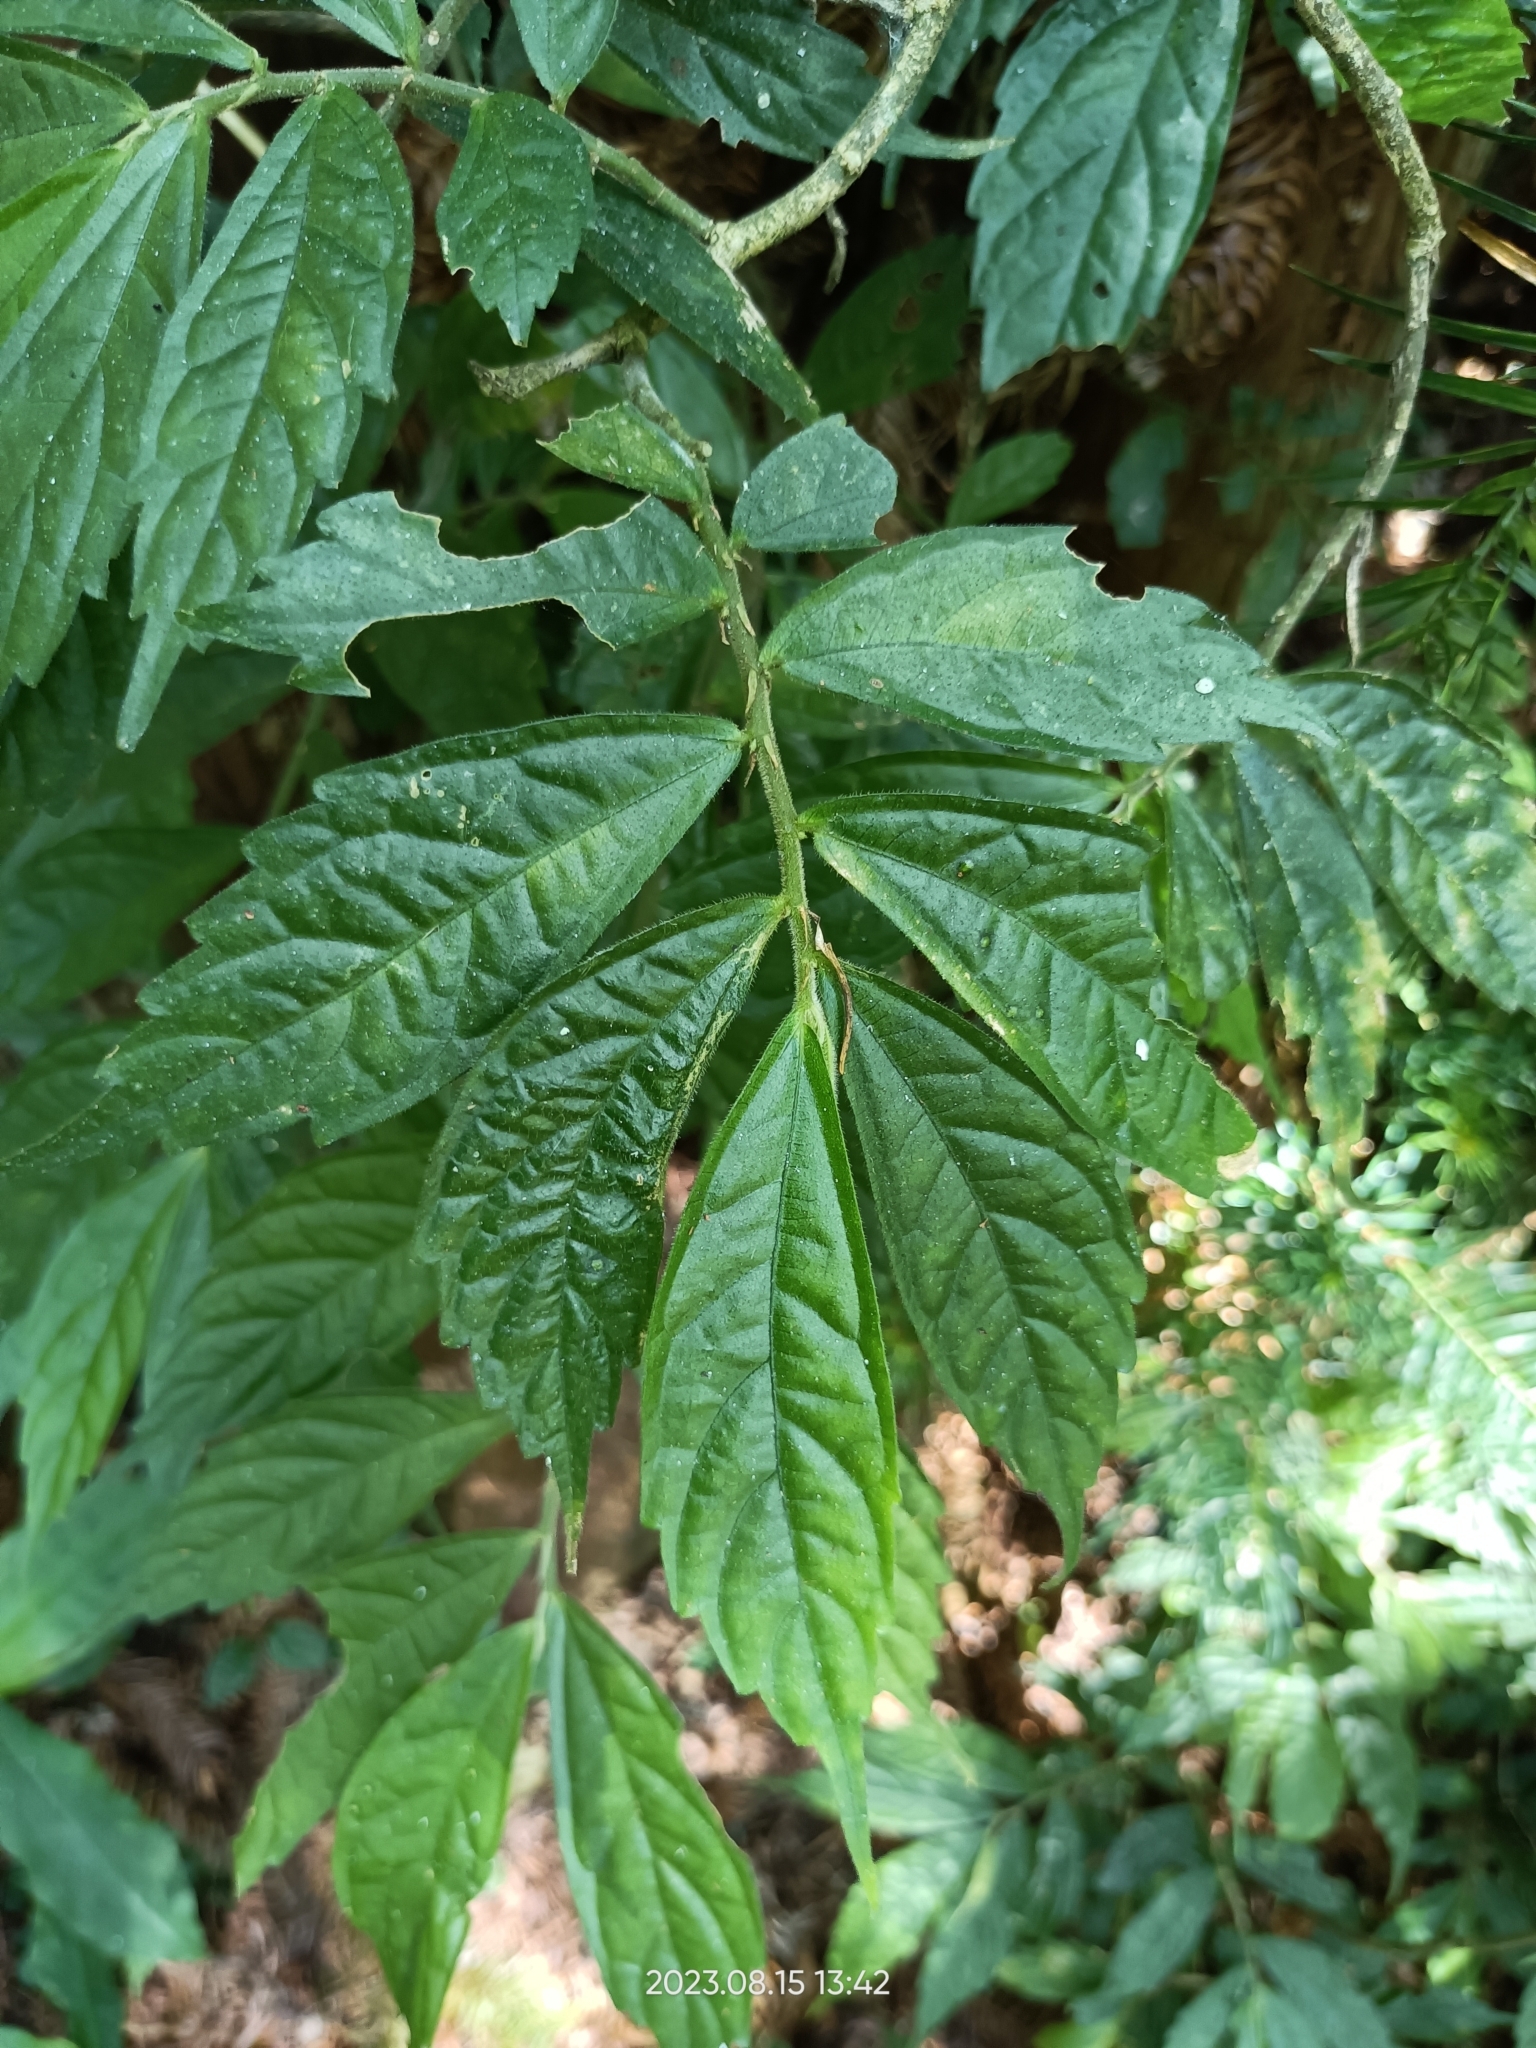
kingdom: Plantae
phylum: Tracheophyta
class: Magnoliopsida
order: Rosales
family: Urticaceae
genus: Elatostema
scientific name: Elatostema lineolatum
